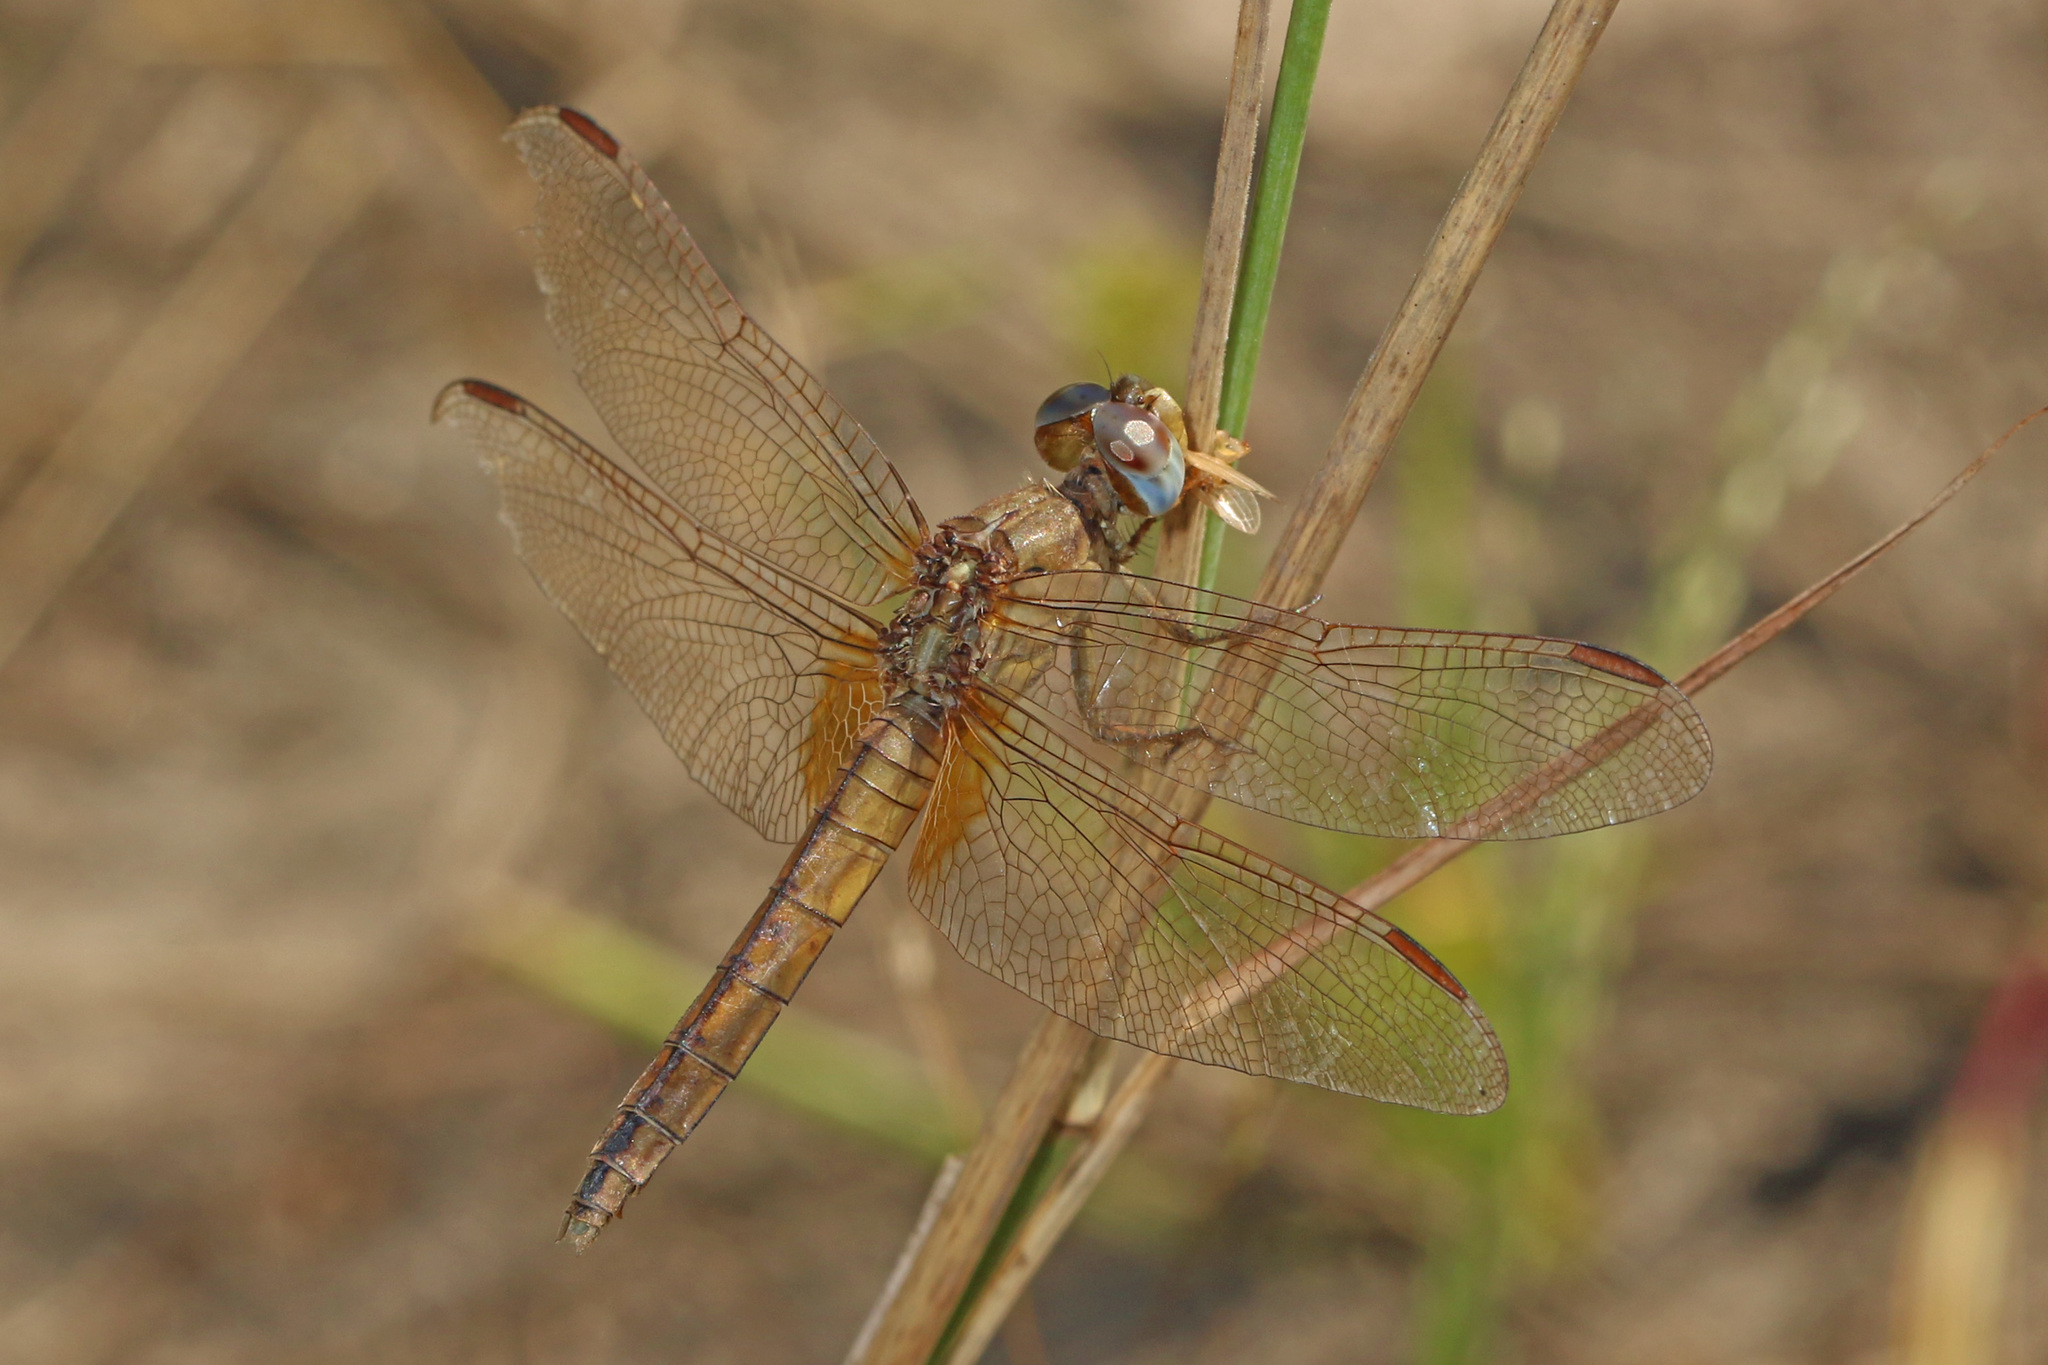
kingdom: Animalia
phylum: Arthropoda
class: Insecta
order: Odonata
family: Libellulidae
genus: Crocothemis
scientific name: Crocothemis erythraea
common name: Scarlet dragonfly
